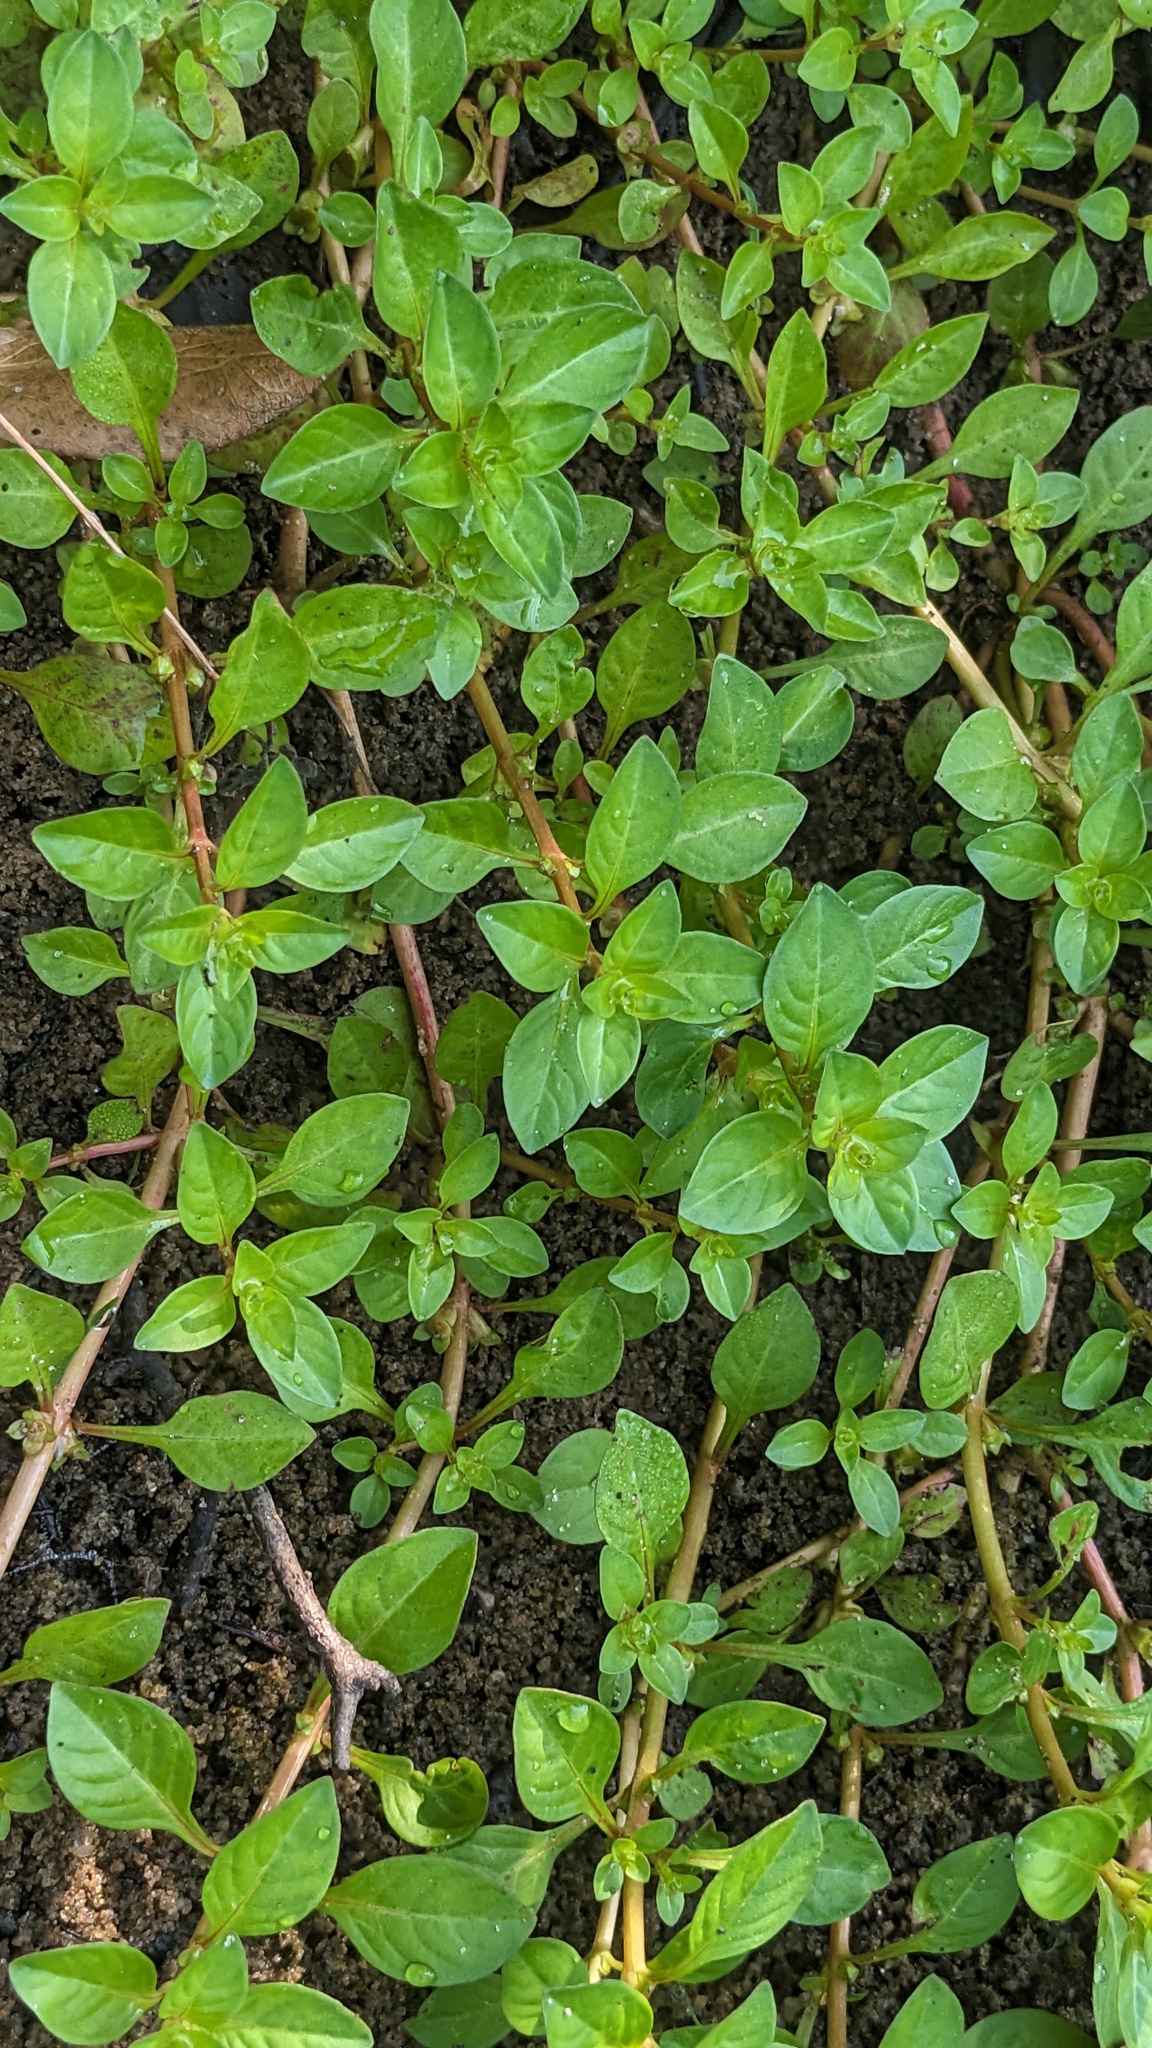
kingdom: Plantae
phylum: Tracheophyta
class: Magnoliopsida
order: Myrtales
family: Onagraceae
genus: Ludwigia
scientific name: Ludwigia palustris
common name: Hampshire-purslane
